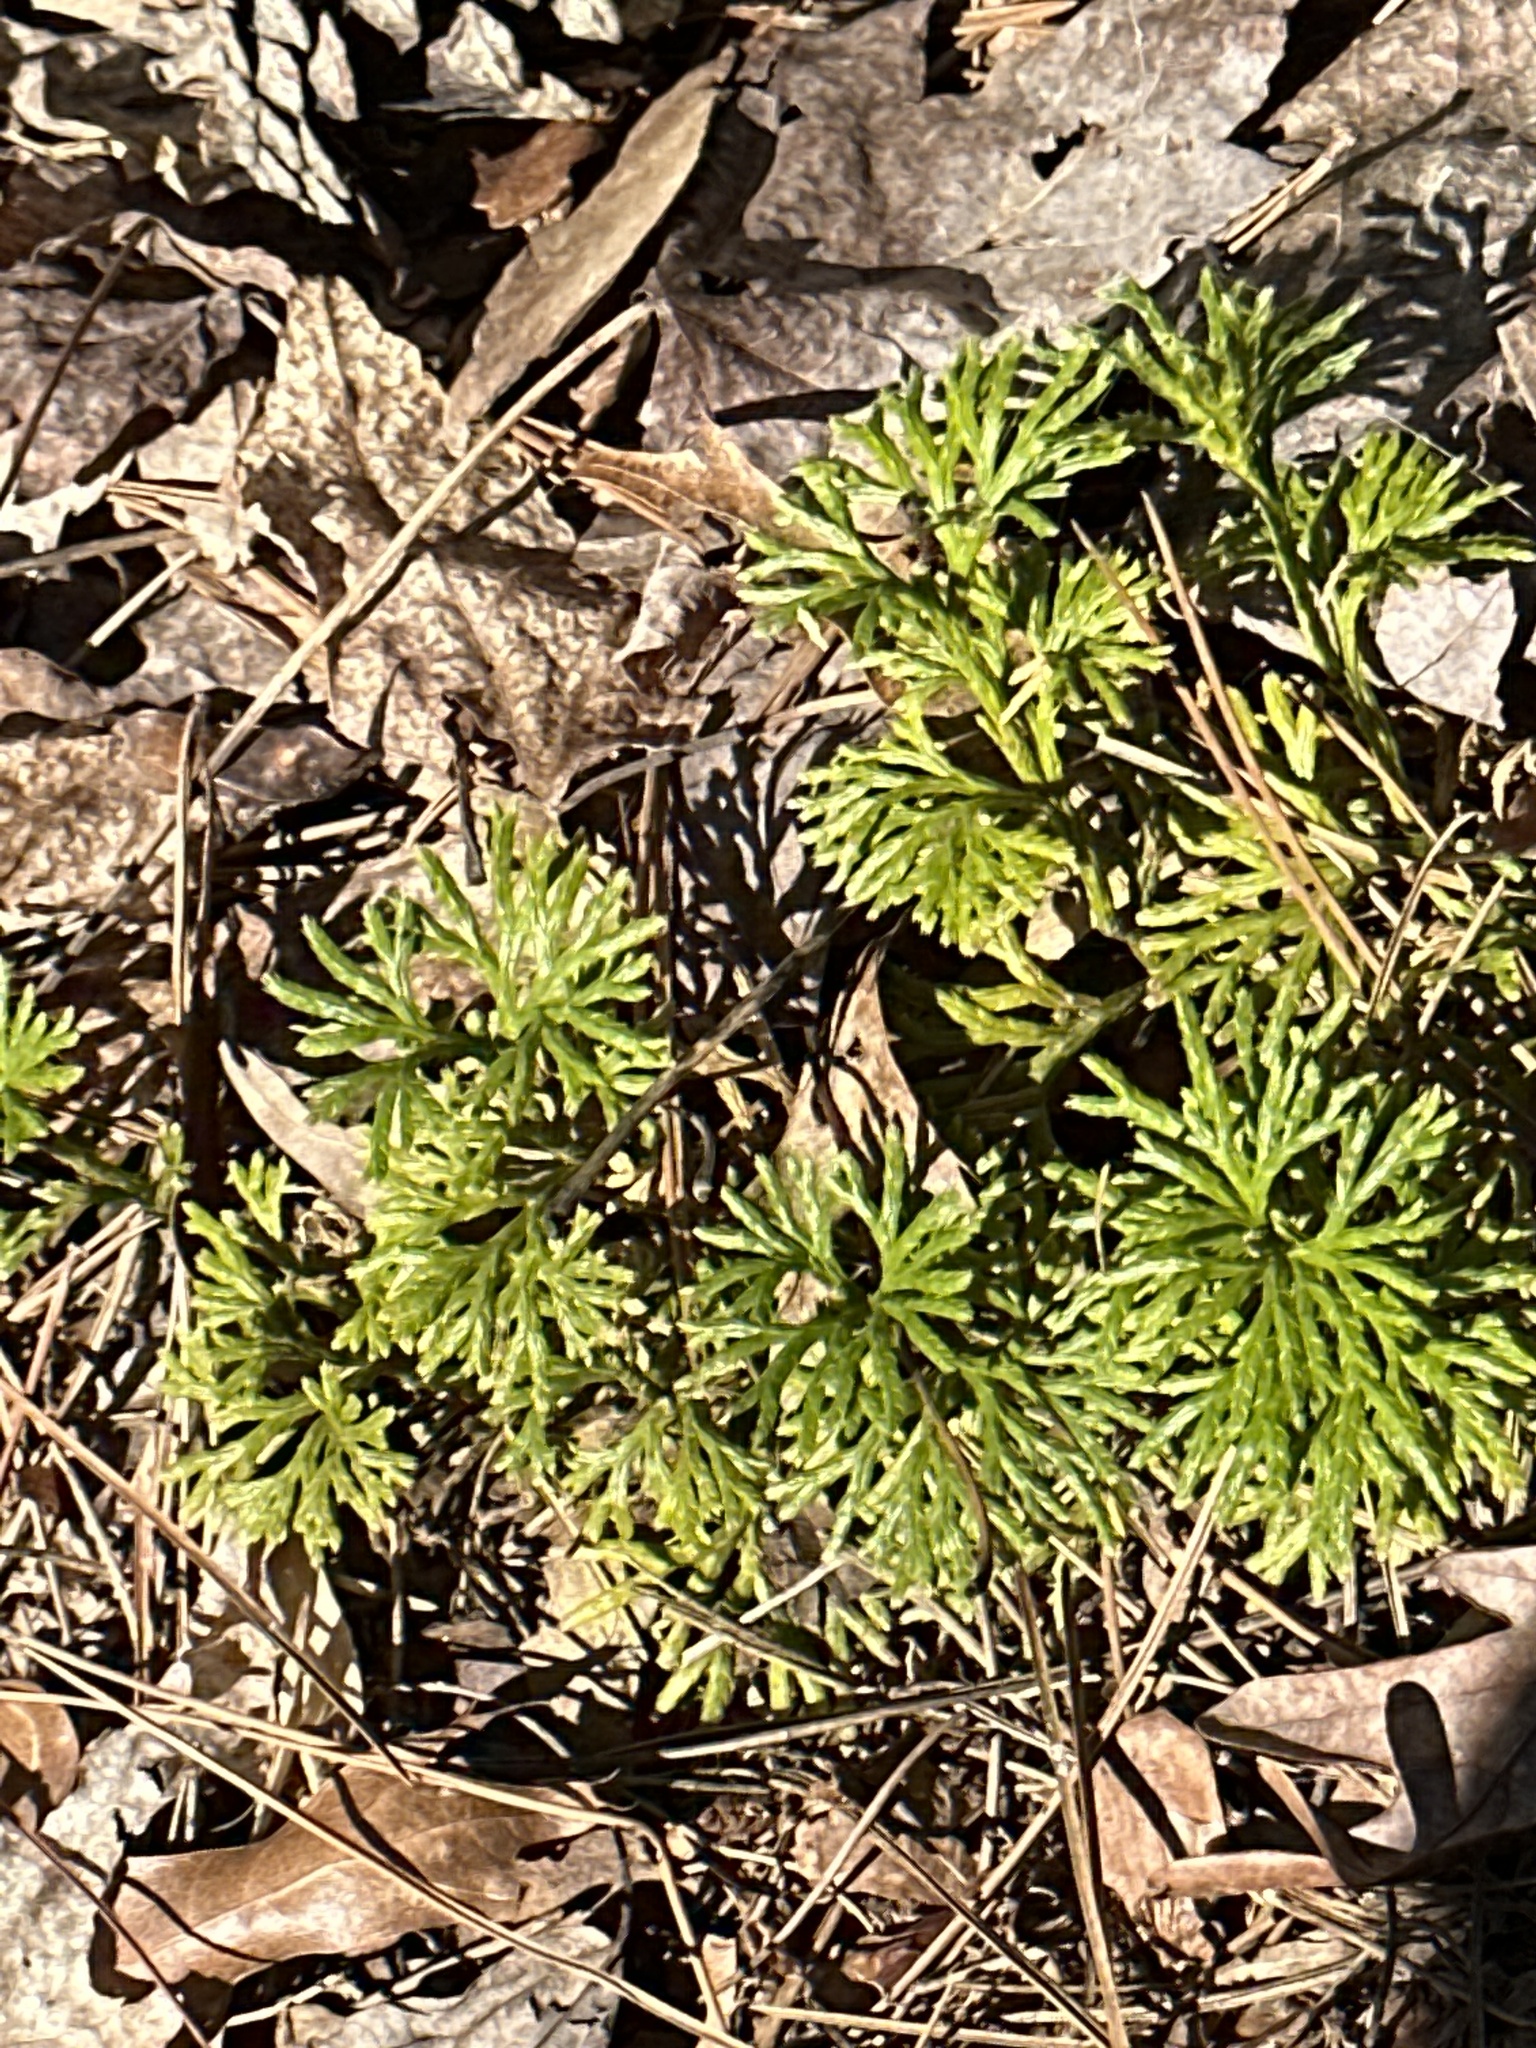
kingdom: Plantae
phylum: Tracheophyta
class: Lycopodiopsida
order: Lycopodiales
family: Lycopodiaceae
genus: Diphasiastrum
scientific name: Diphasiastrum digitatum
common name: Southern running-pine
